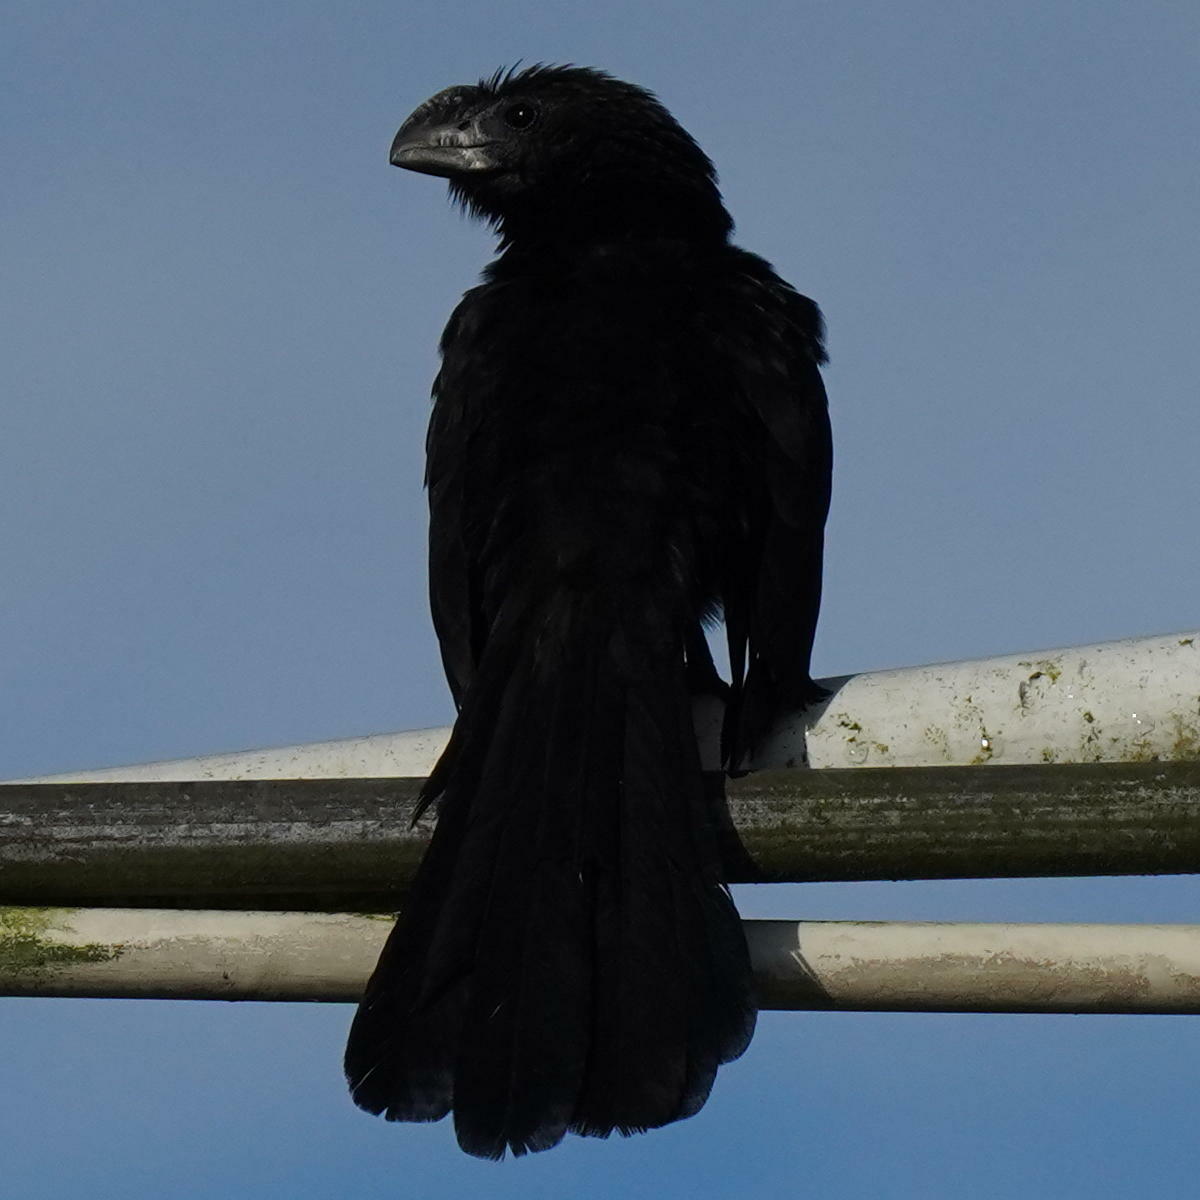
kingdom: Animalia
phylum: Chordata
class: Aves
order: Cuculiformes
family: Cuculidae
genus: Crotophaga
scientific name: Crotophaga ani
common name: Smooth-billed ani
